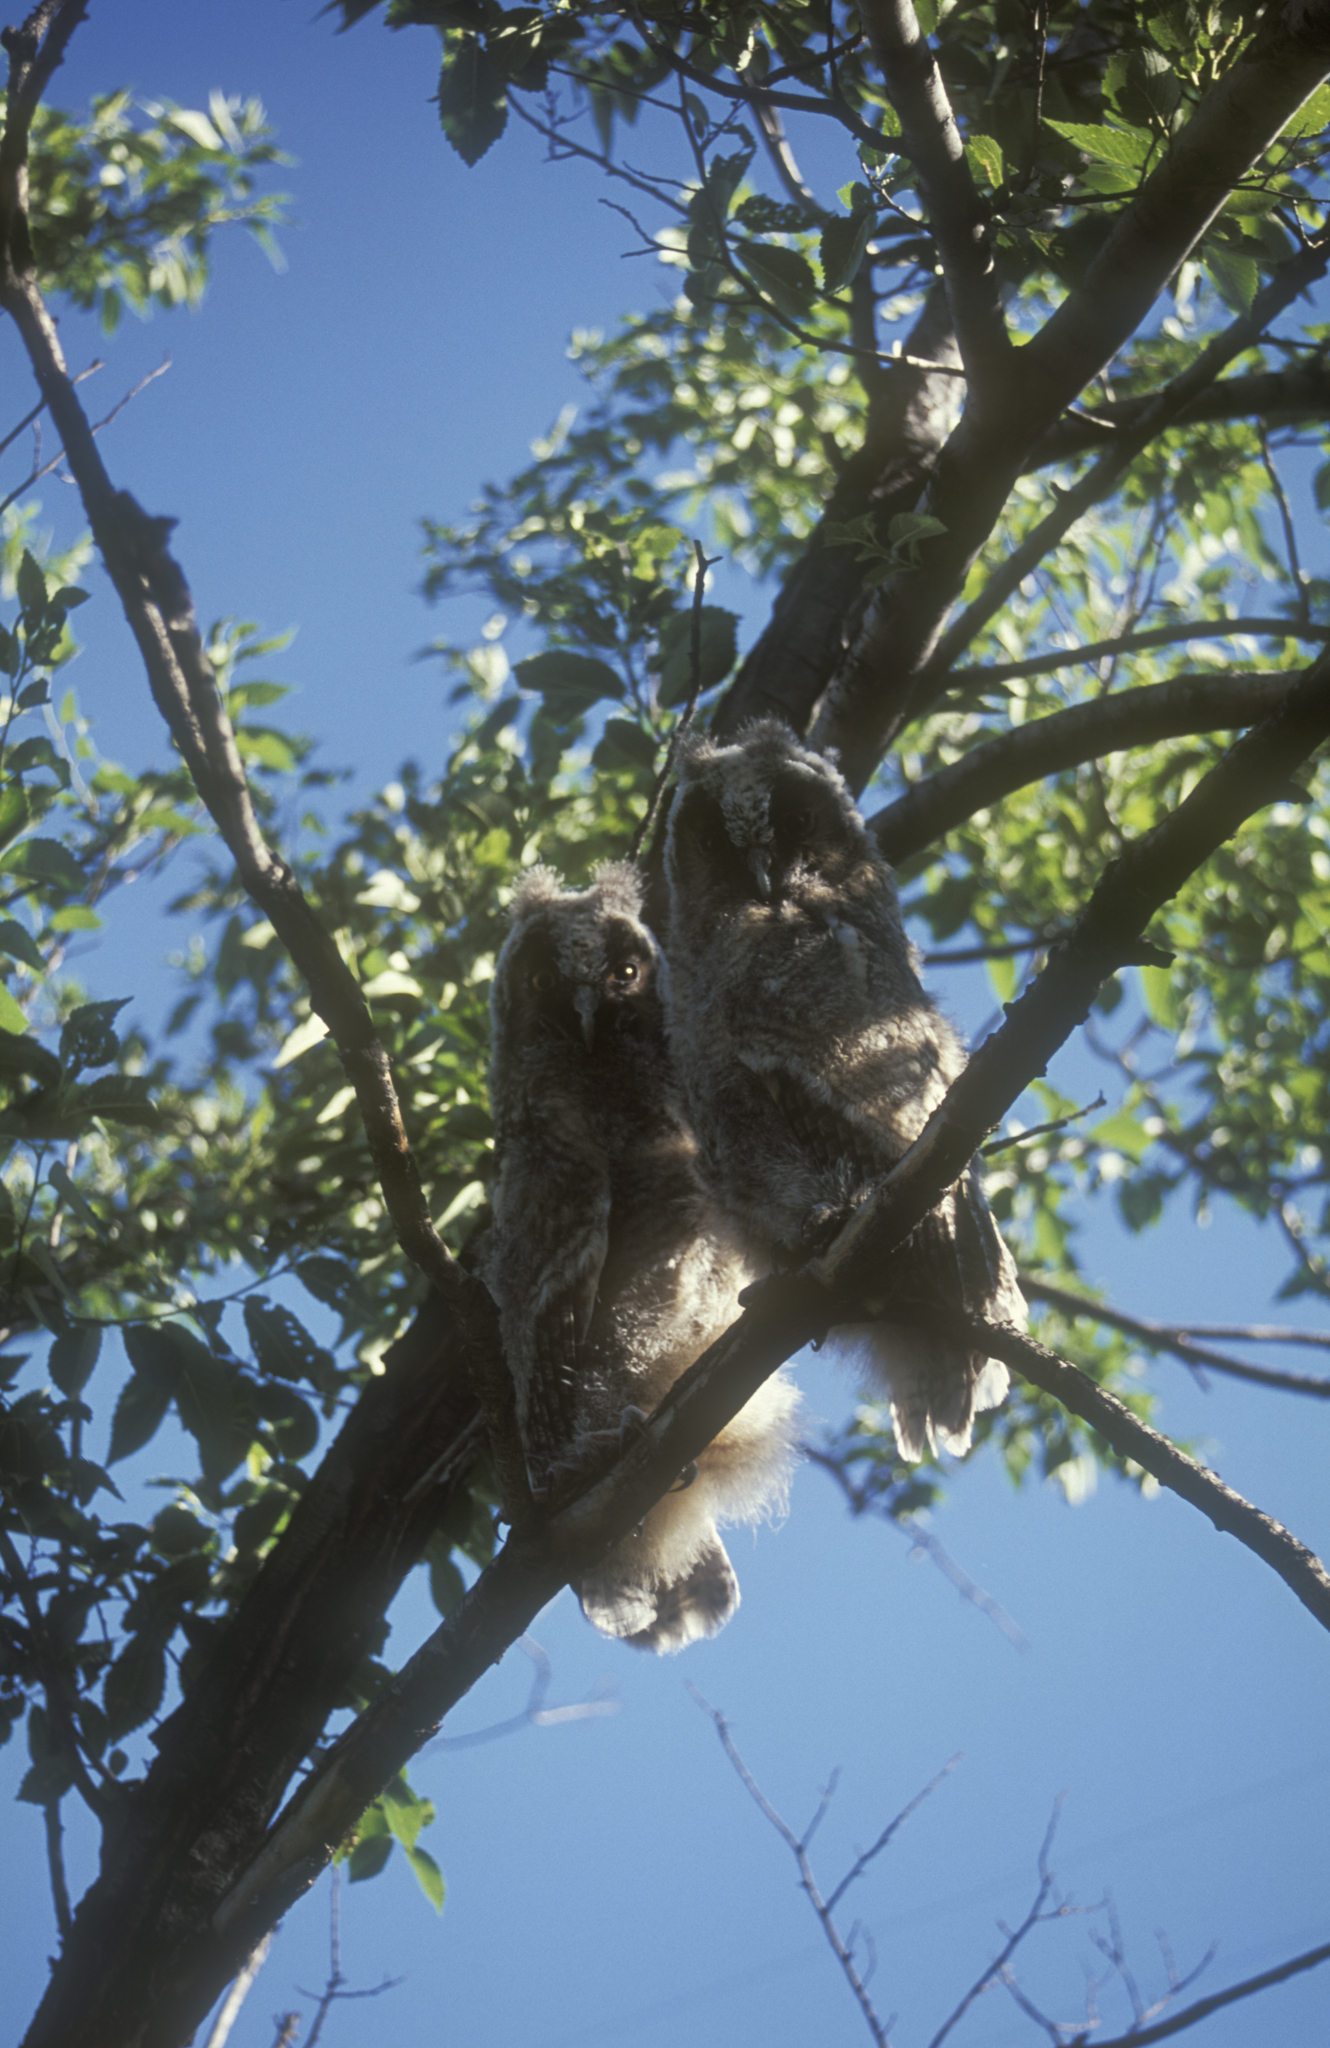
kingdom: Animalia
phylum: Chordata
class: Aves
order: Strigiformes
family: Strigidae
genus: Asio
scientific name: Asio otus
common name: Long-eared owl
